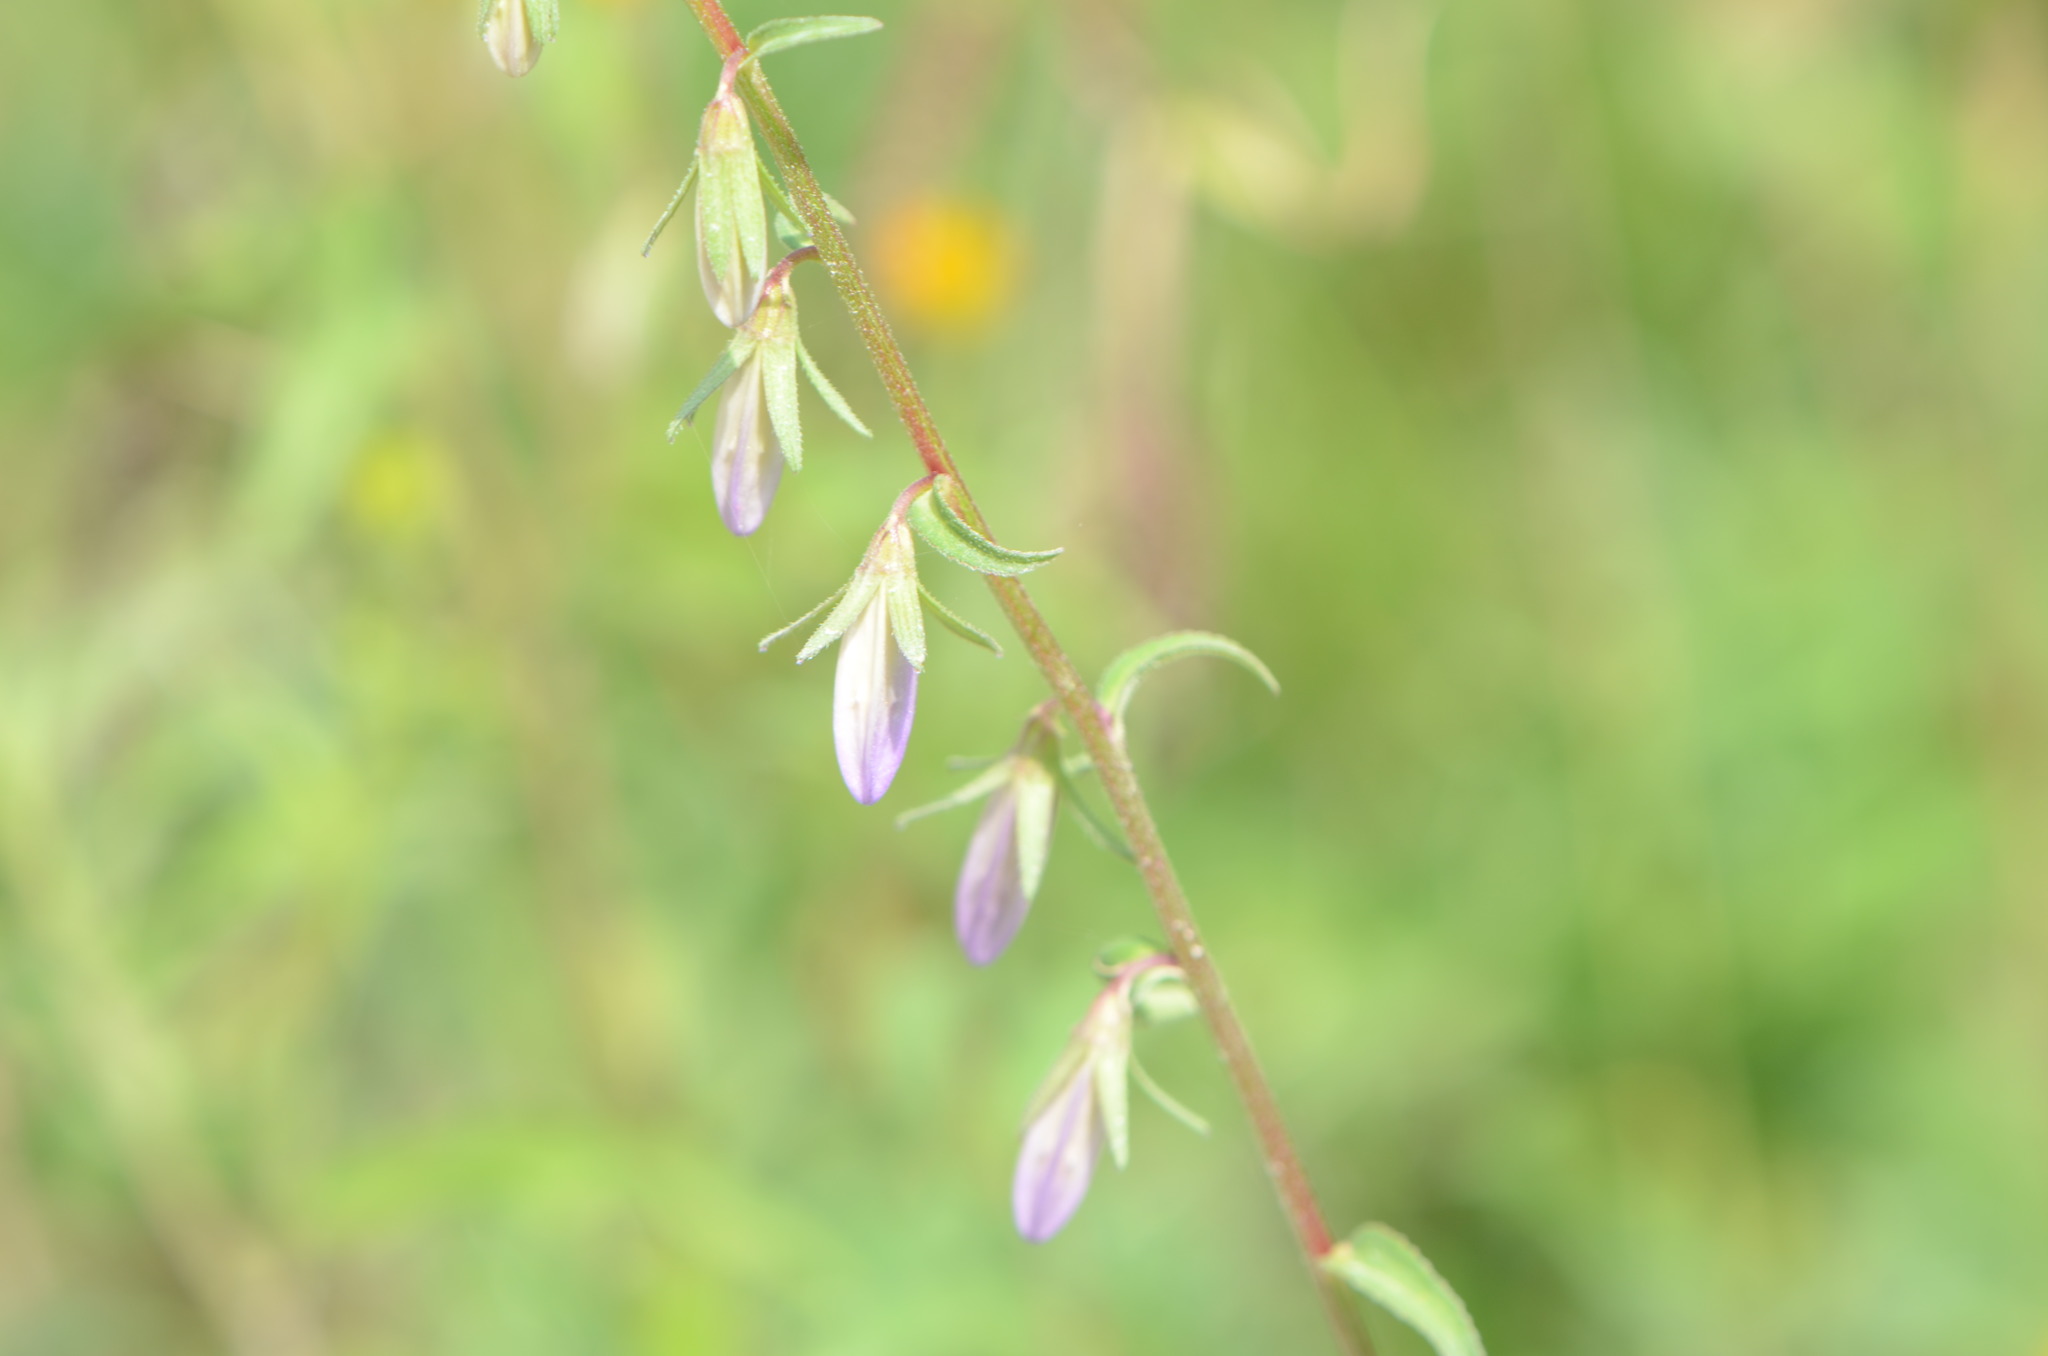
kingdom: Plantae
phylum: Tracheophyta
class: Magnoliopsida
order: Asterales
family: Campanulaceae
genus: Campanula
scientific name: Campanula rapunculoides
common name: Creeping bellflower
